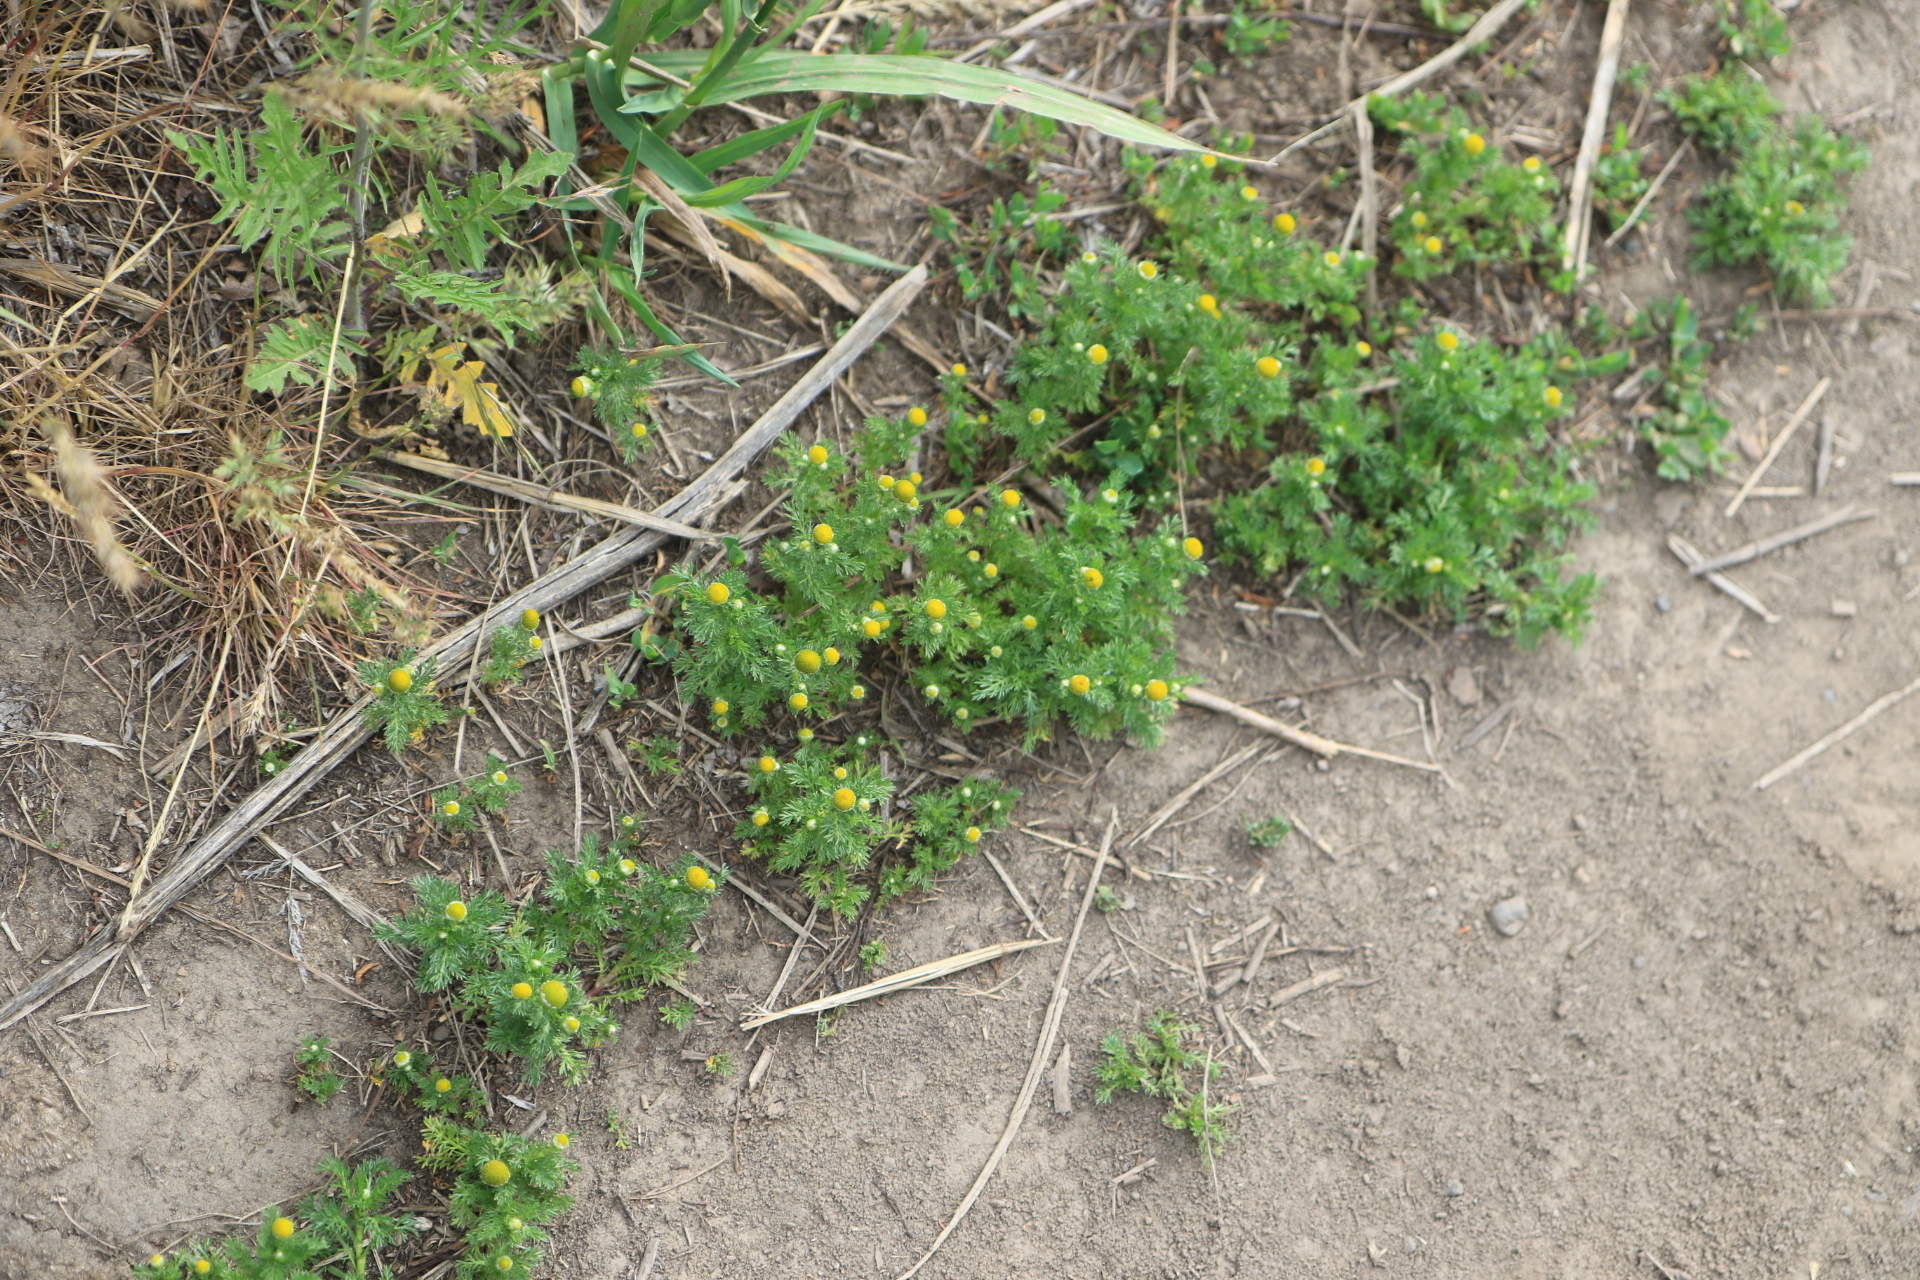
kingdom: Plantae
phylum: Tracheophyta
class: Magnoliopsida
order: Asterales
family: Asteraceae
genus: Matricaria
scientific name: Matricaria discoidea
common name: Disc mayweed
